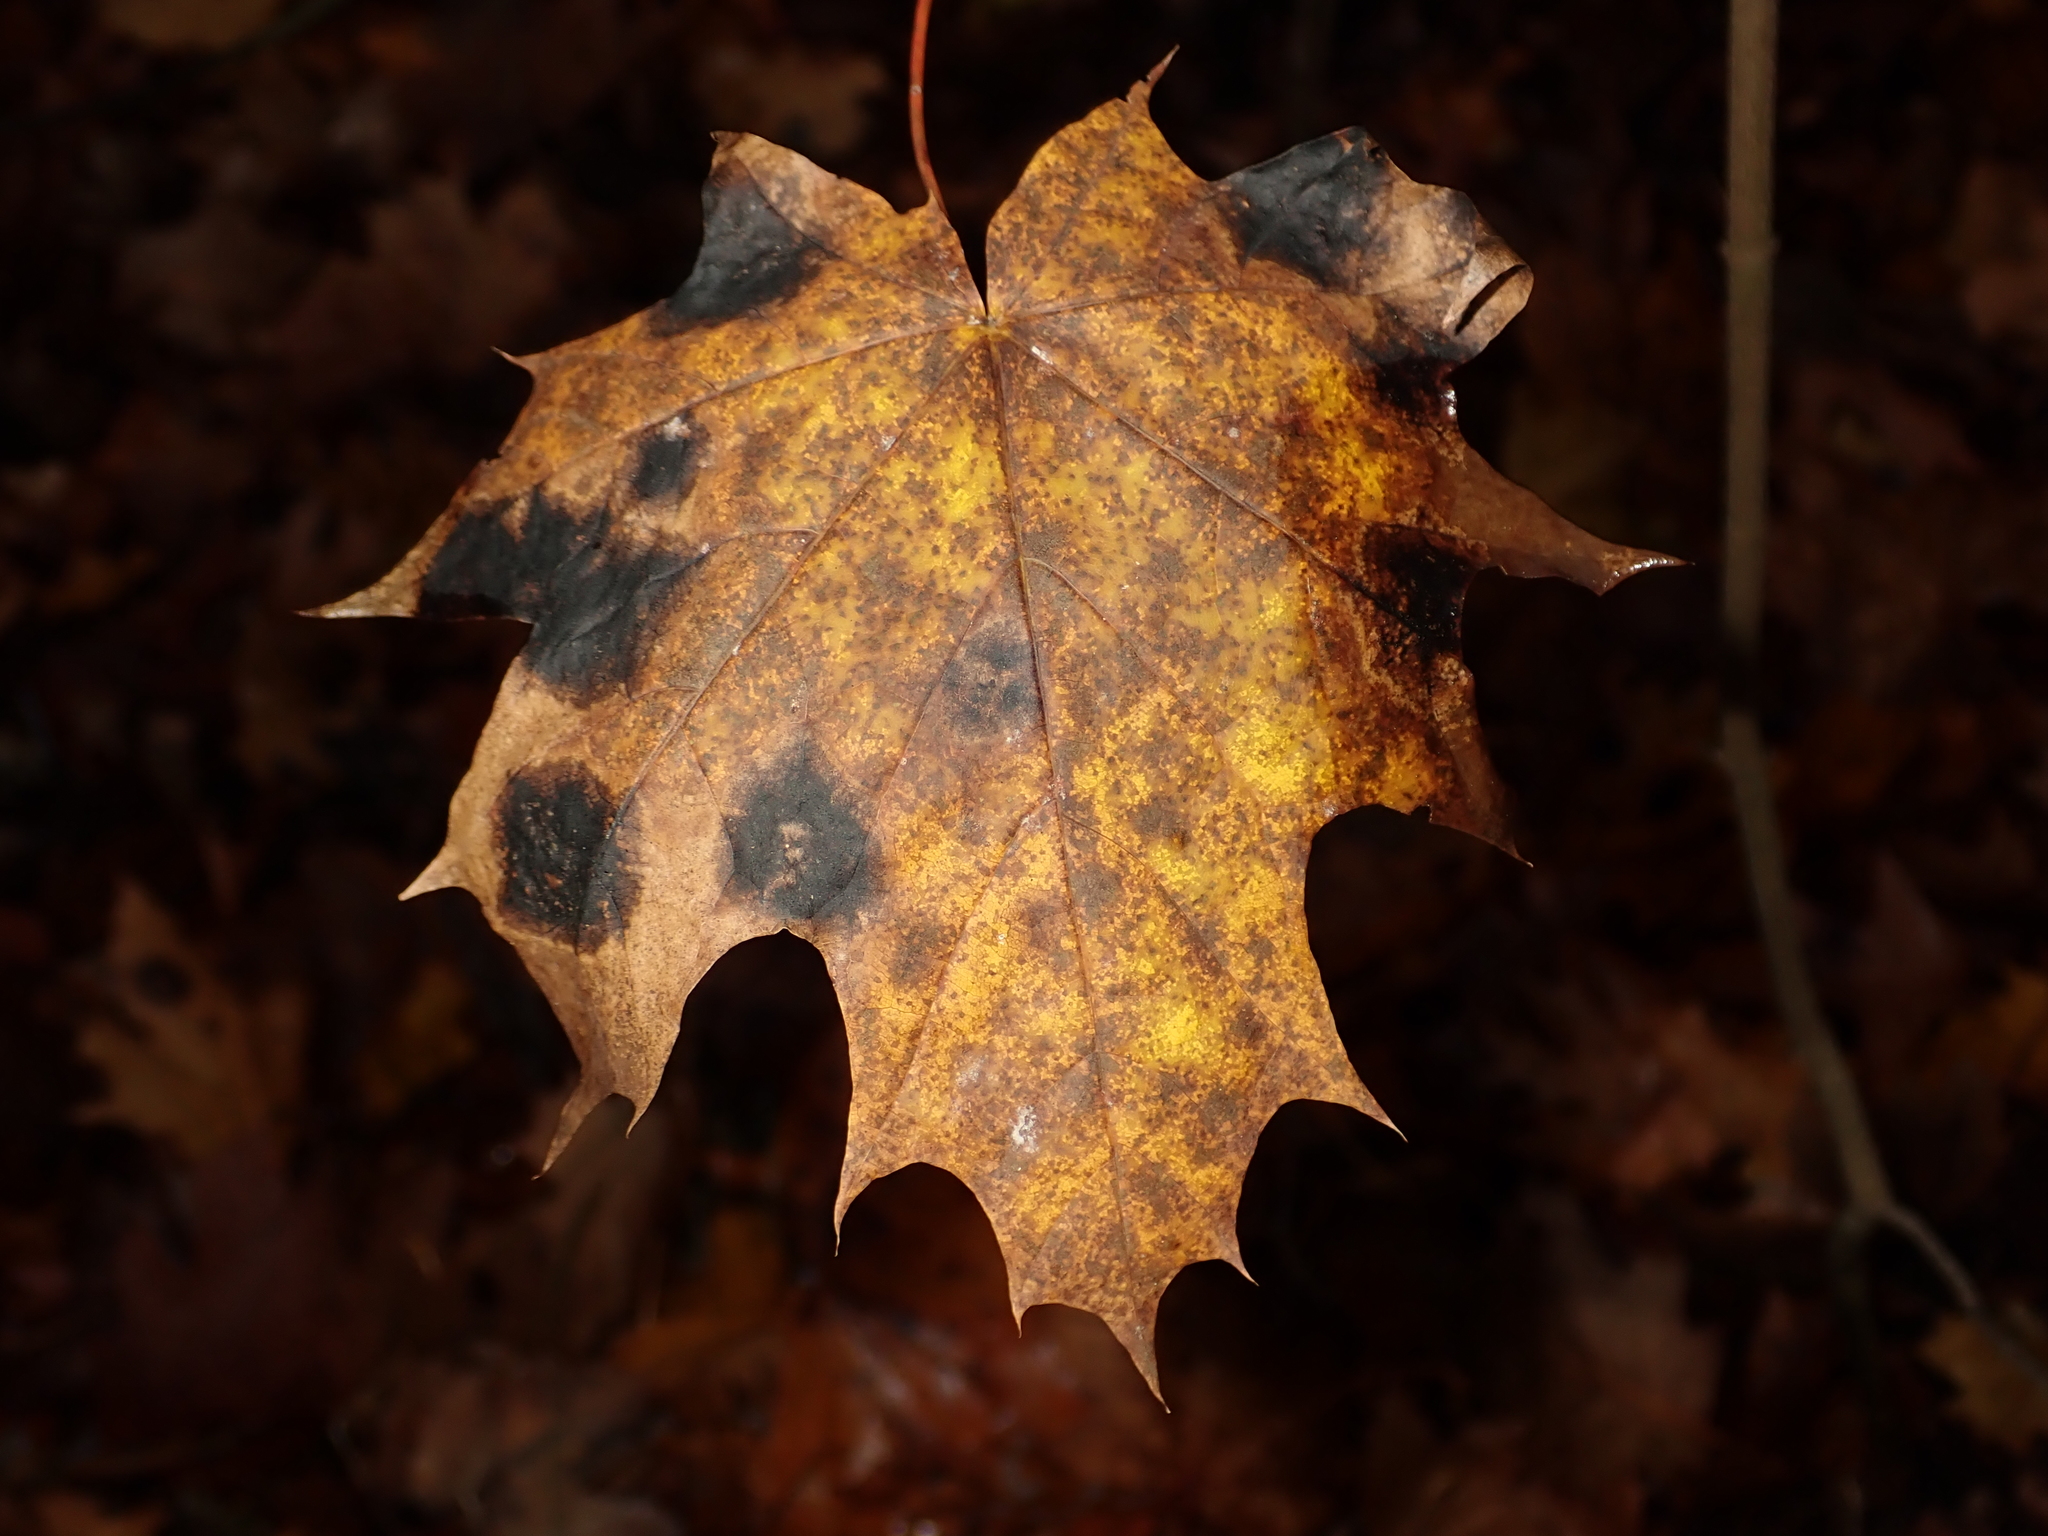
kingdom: Plantae
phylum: Tracheophyta
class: Magnoliopsida
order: Sapindales
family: Sapindaceae
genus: Acer
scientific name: Acer platanoides
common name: Norway maple
